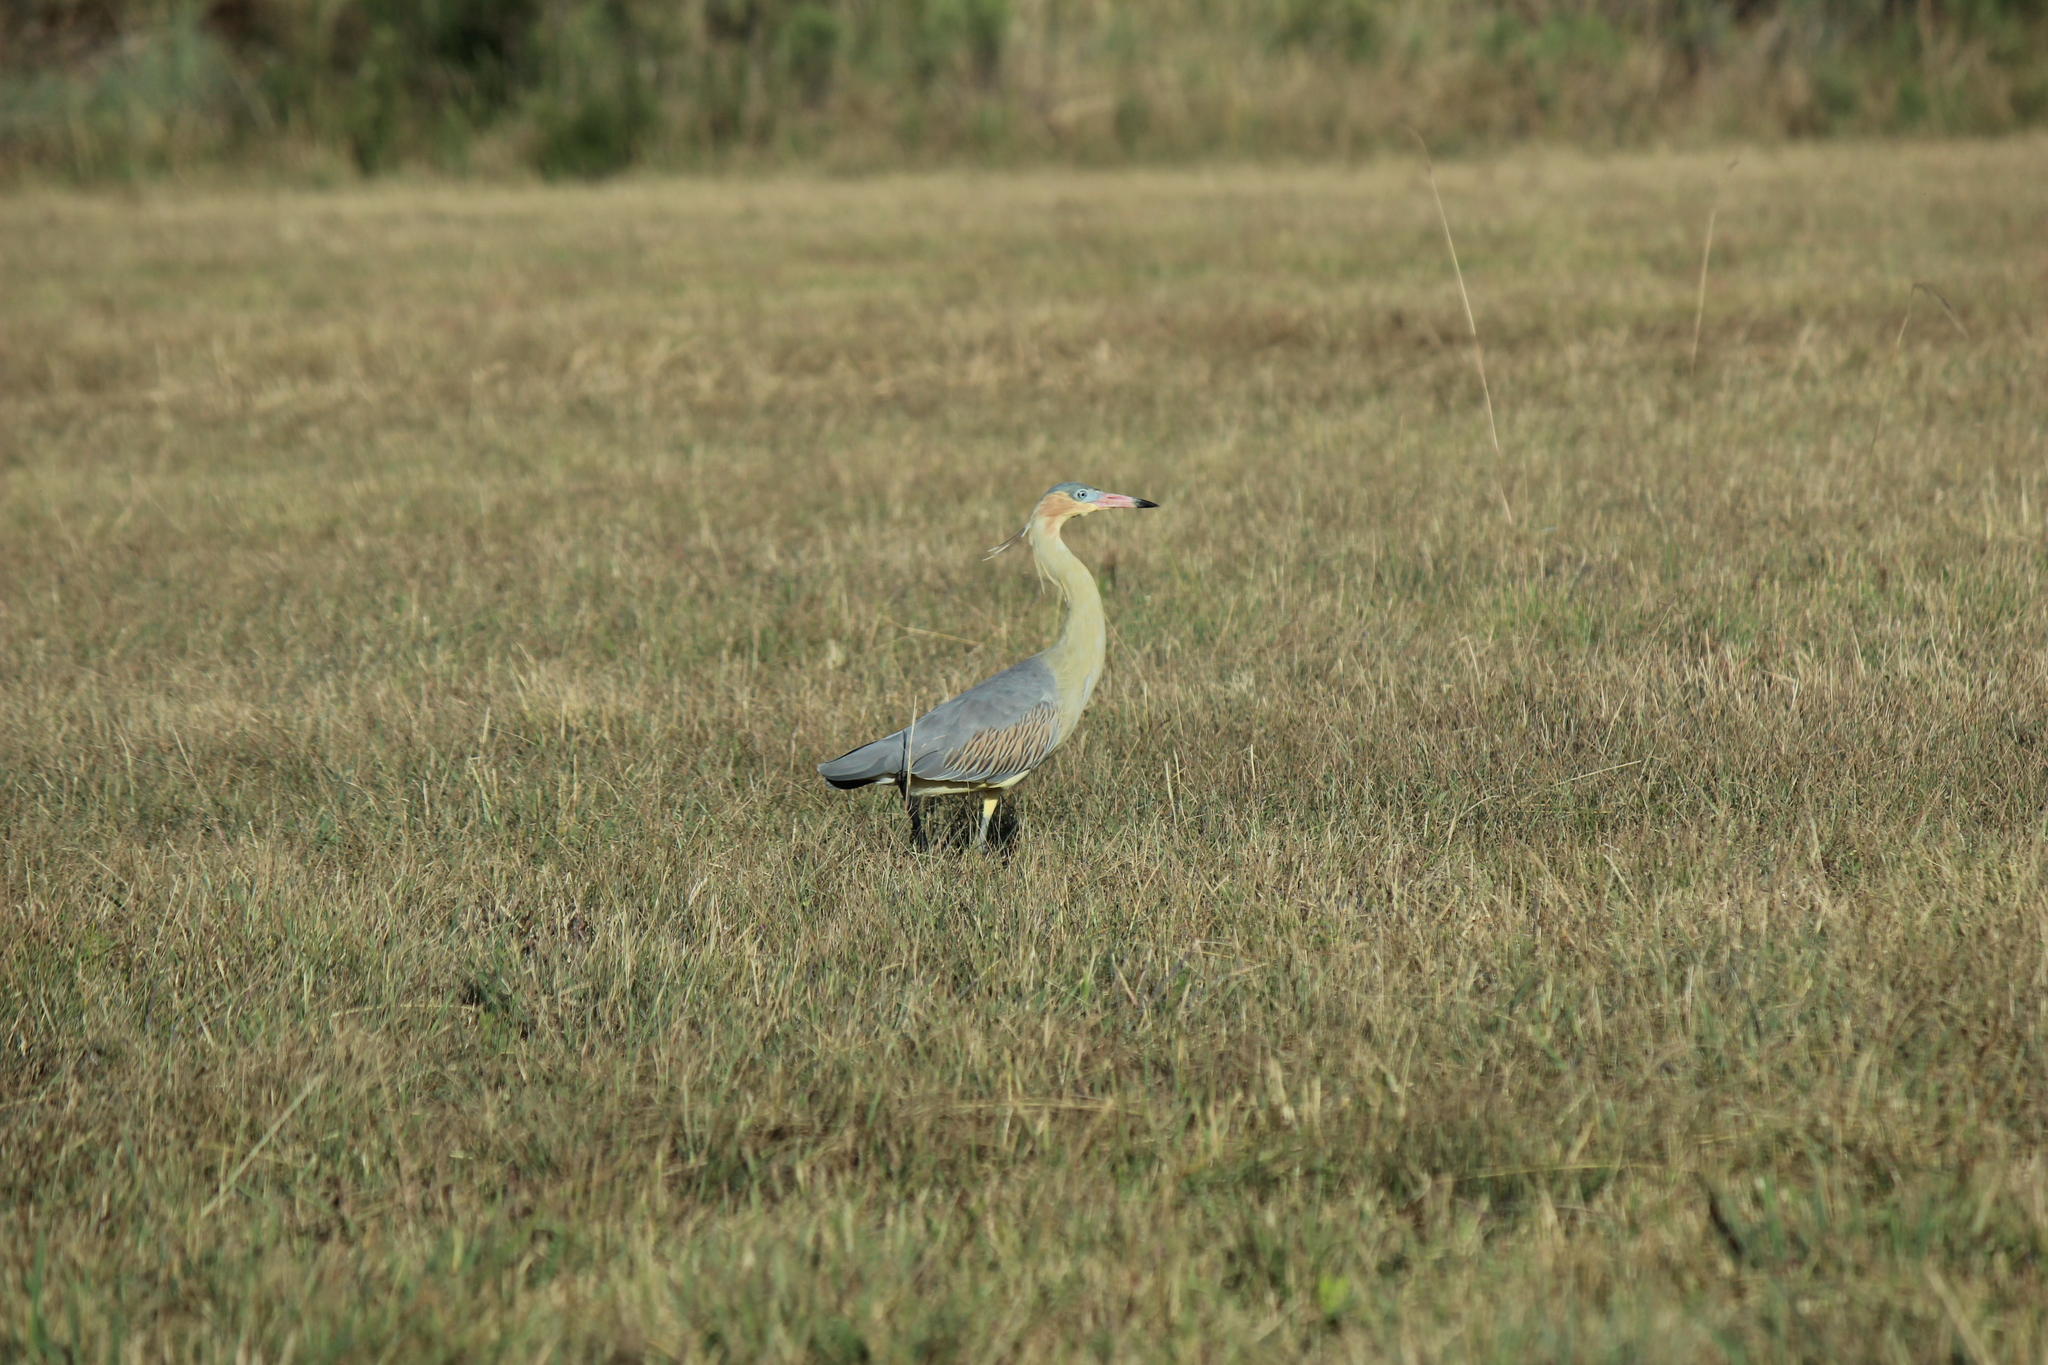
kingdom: Animalia
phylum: Chordata
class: Aves
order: Pelecaniformes
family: Ardeidae
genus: Syrigma
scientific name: Syrigma sibilatrix
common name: Whistling heron
